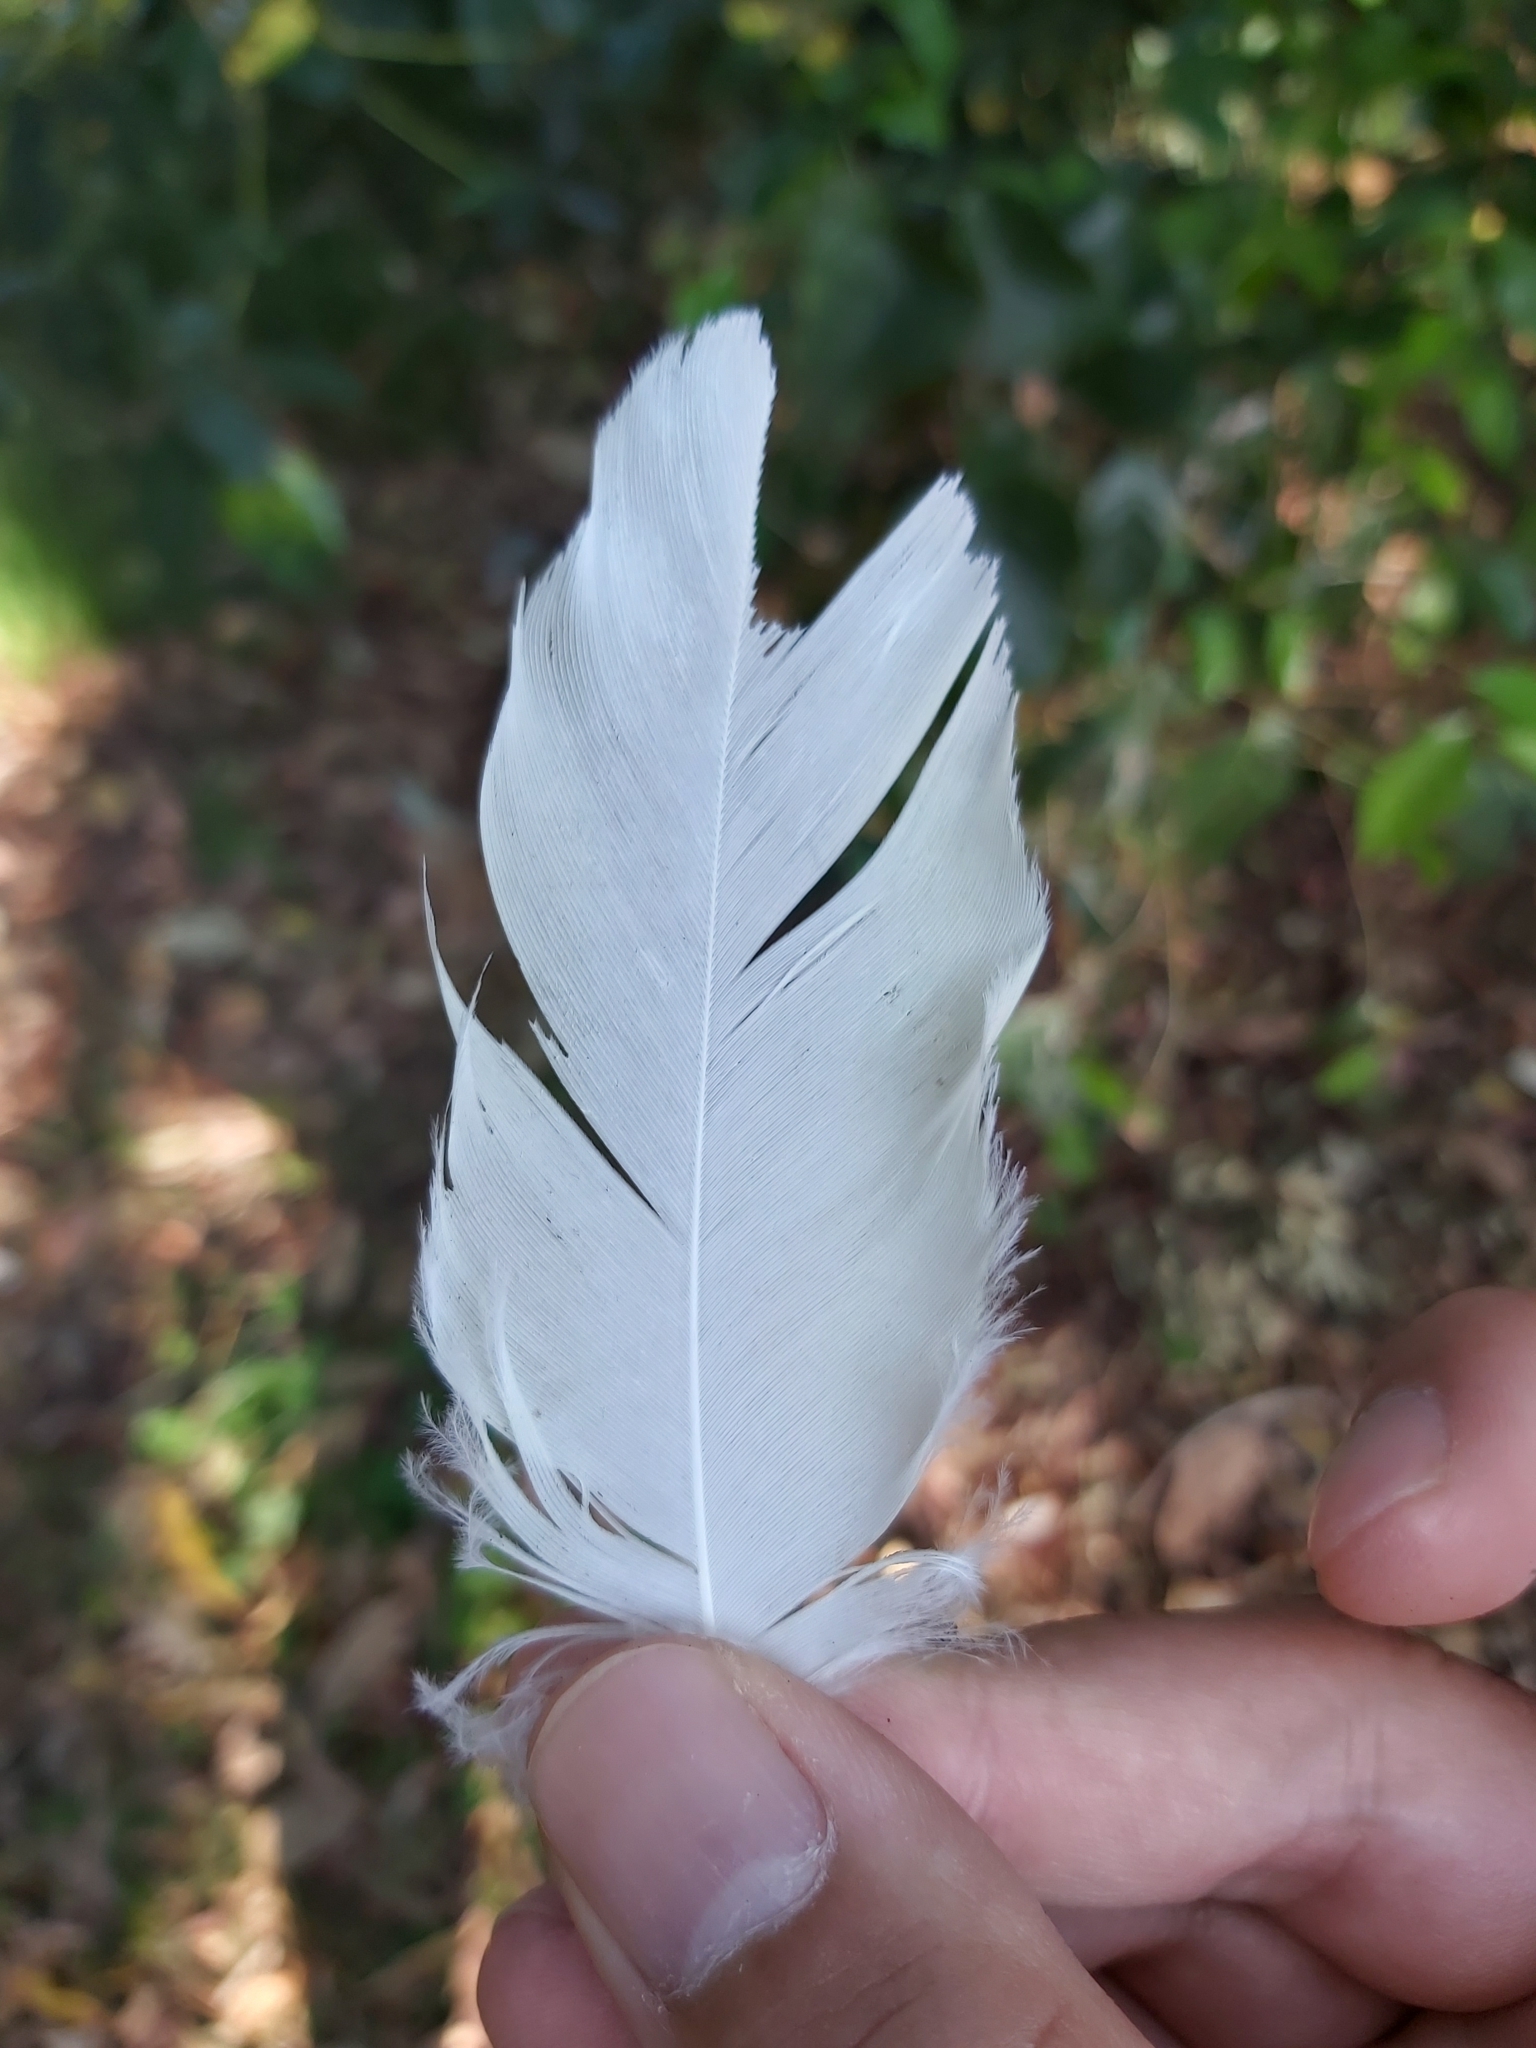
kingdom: Animalia
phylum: Chordata
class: Aves
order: Psittaciformes
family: Psittacidae
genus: Cacatua
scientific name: Cacatua galerita
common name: Sulphur-crested cockatoo
